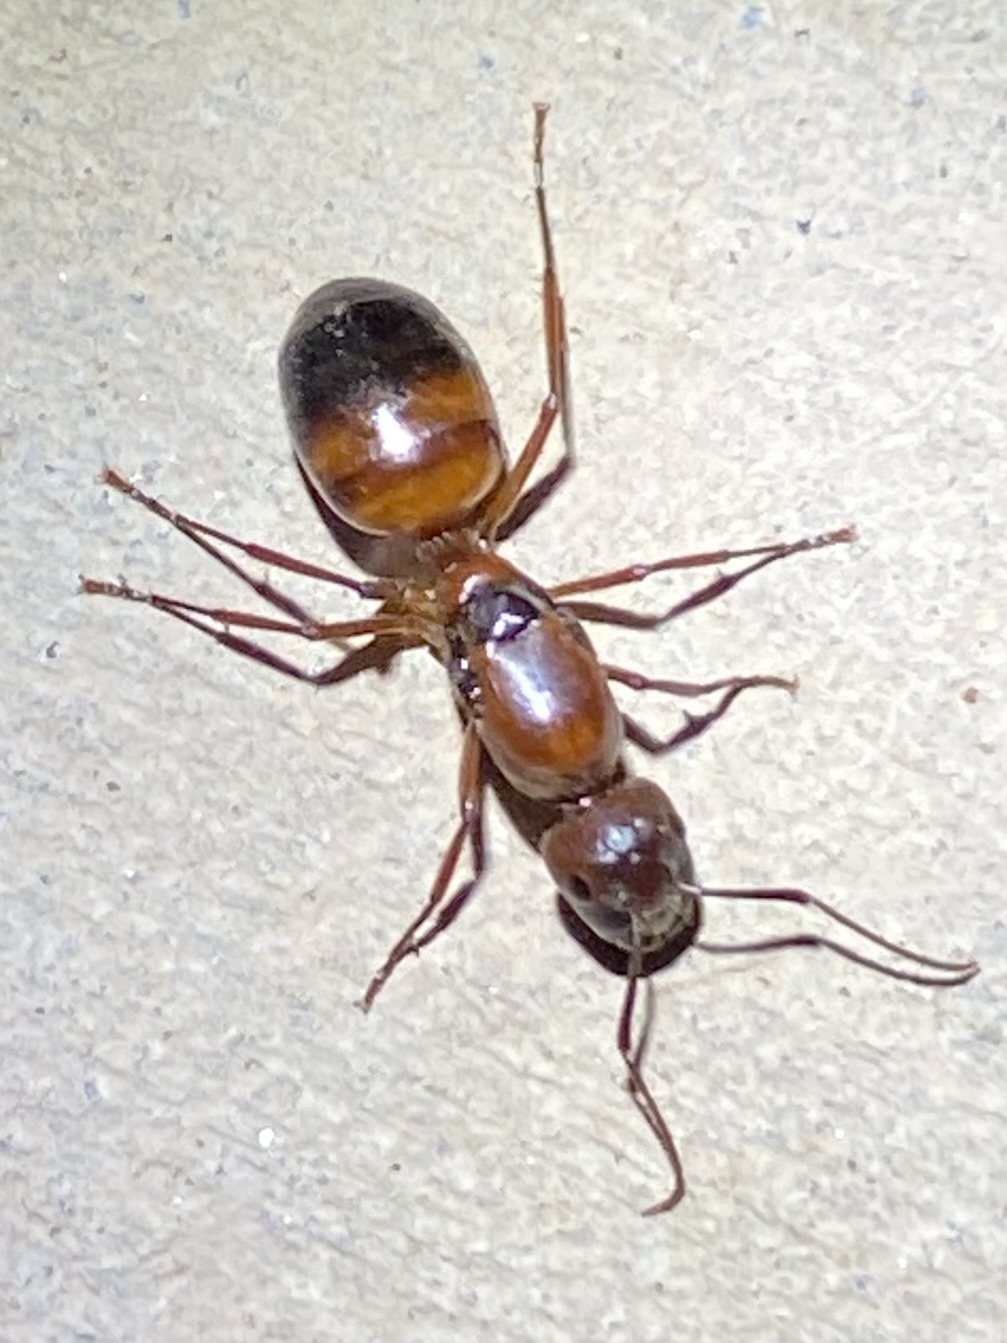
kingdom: Animalia
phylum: Arthropoda
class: Insecta
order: Hymenoptera
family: Formicidae
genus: Camponotus
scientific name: Camponotus
